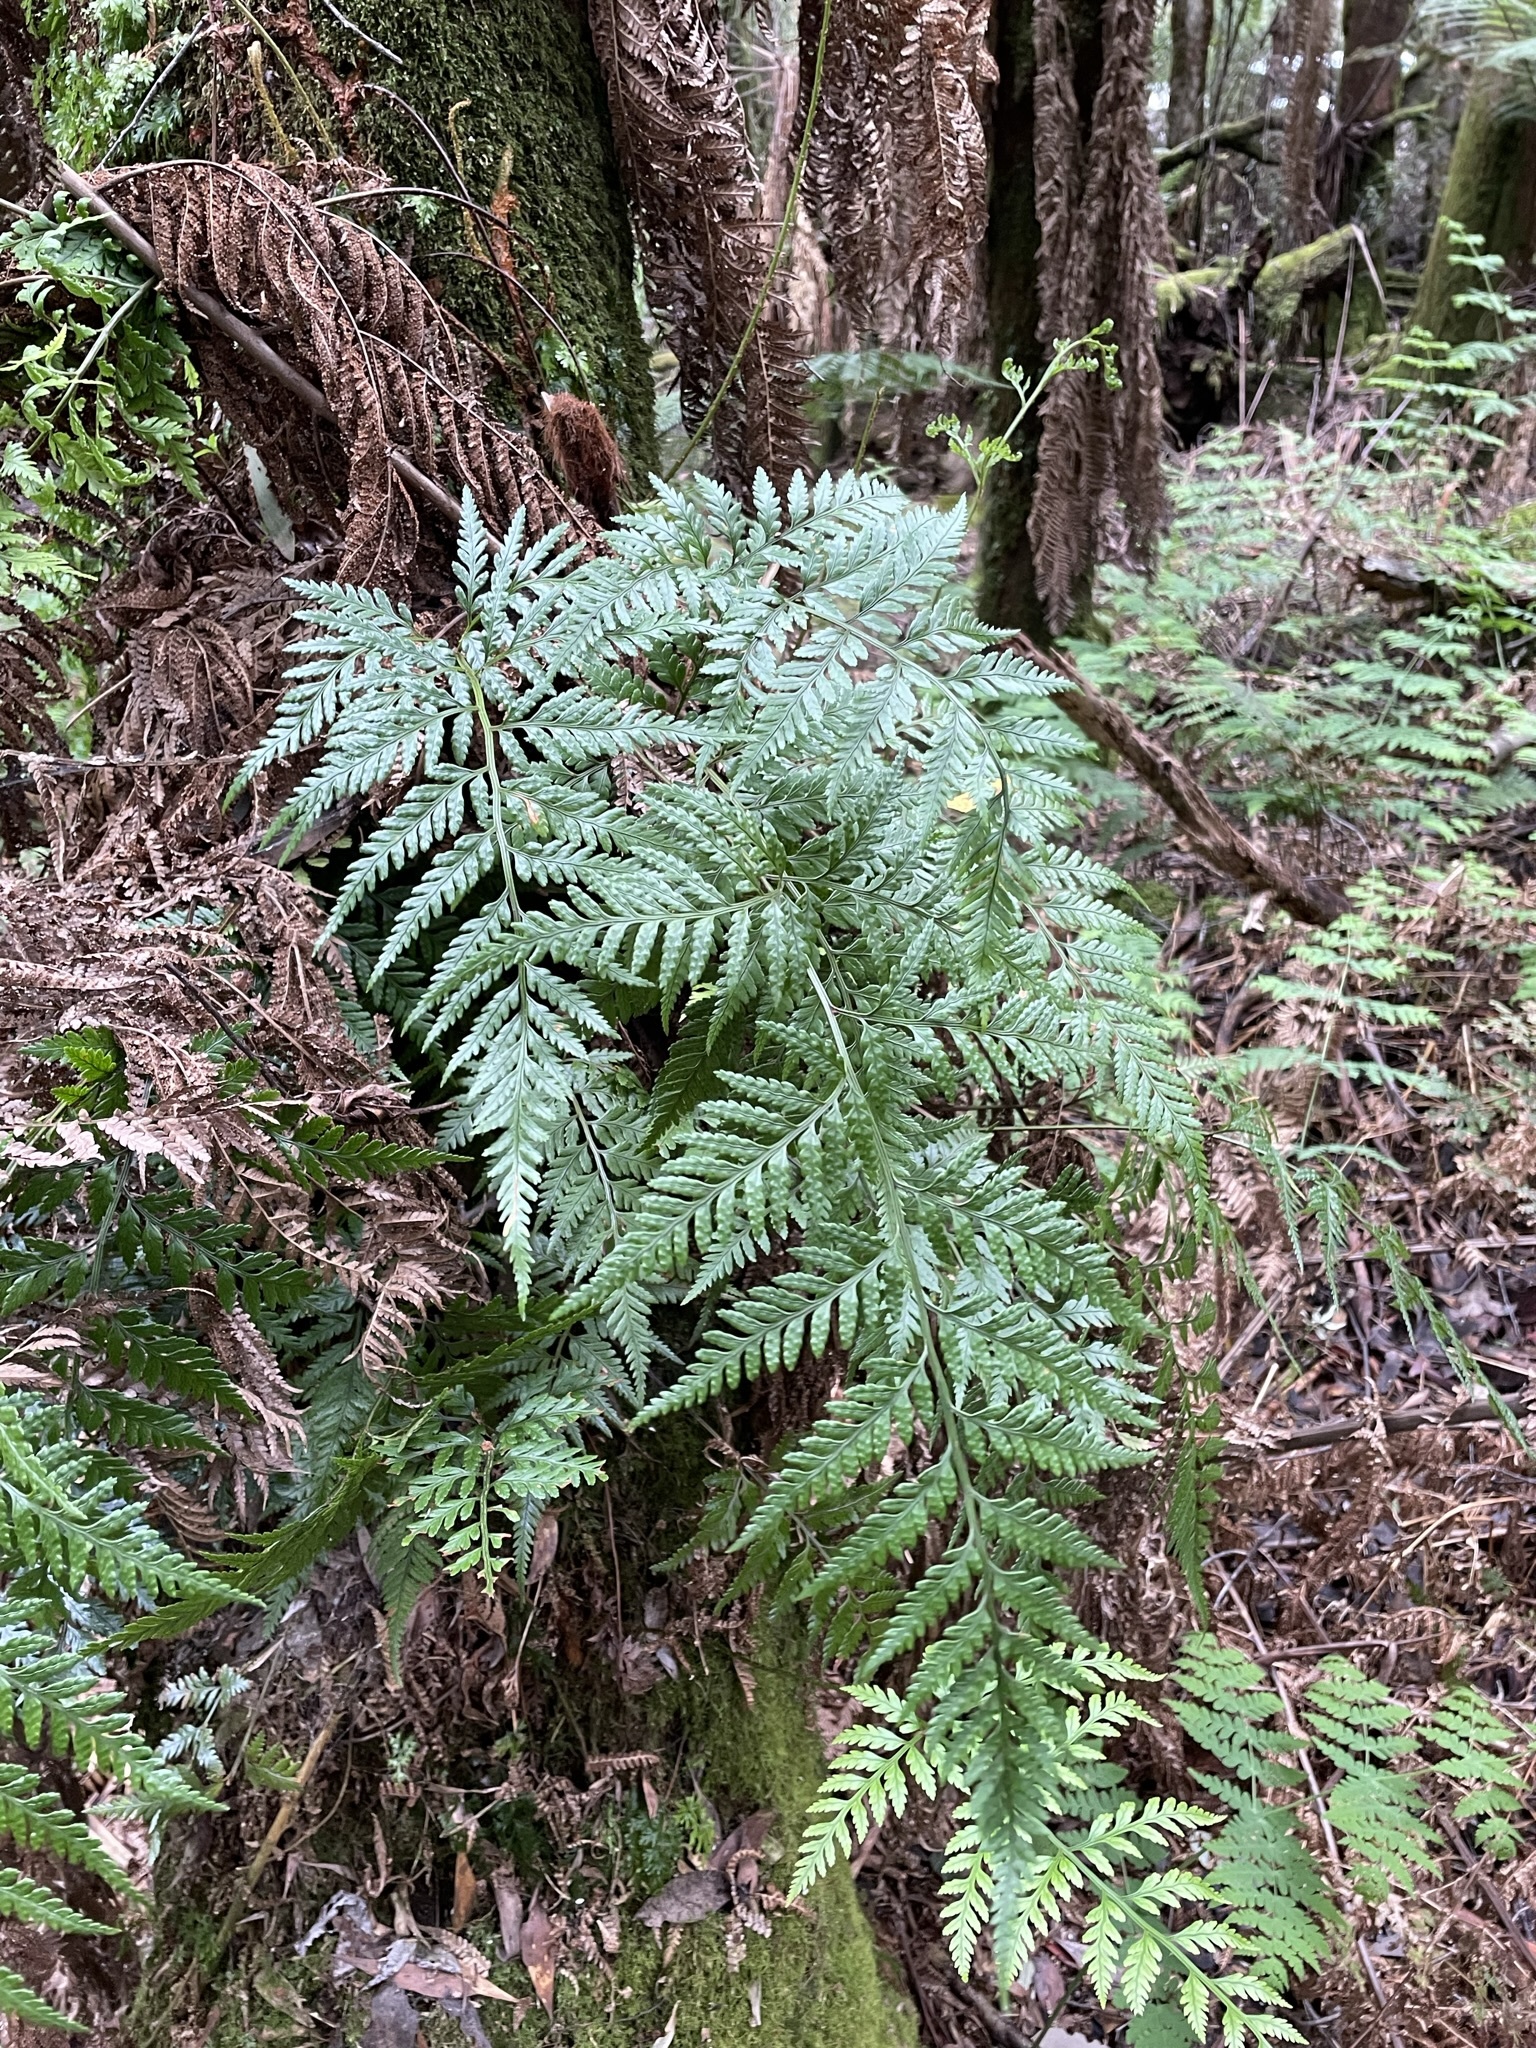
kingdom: Plantae
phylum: Tracheophyta
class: Polypodiopsida
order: Polypodiales
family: Dryopteridaceae
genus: Rumohra
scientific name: Rumohra adiantiformis
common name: Leather fern
